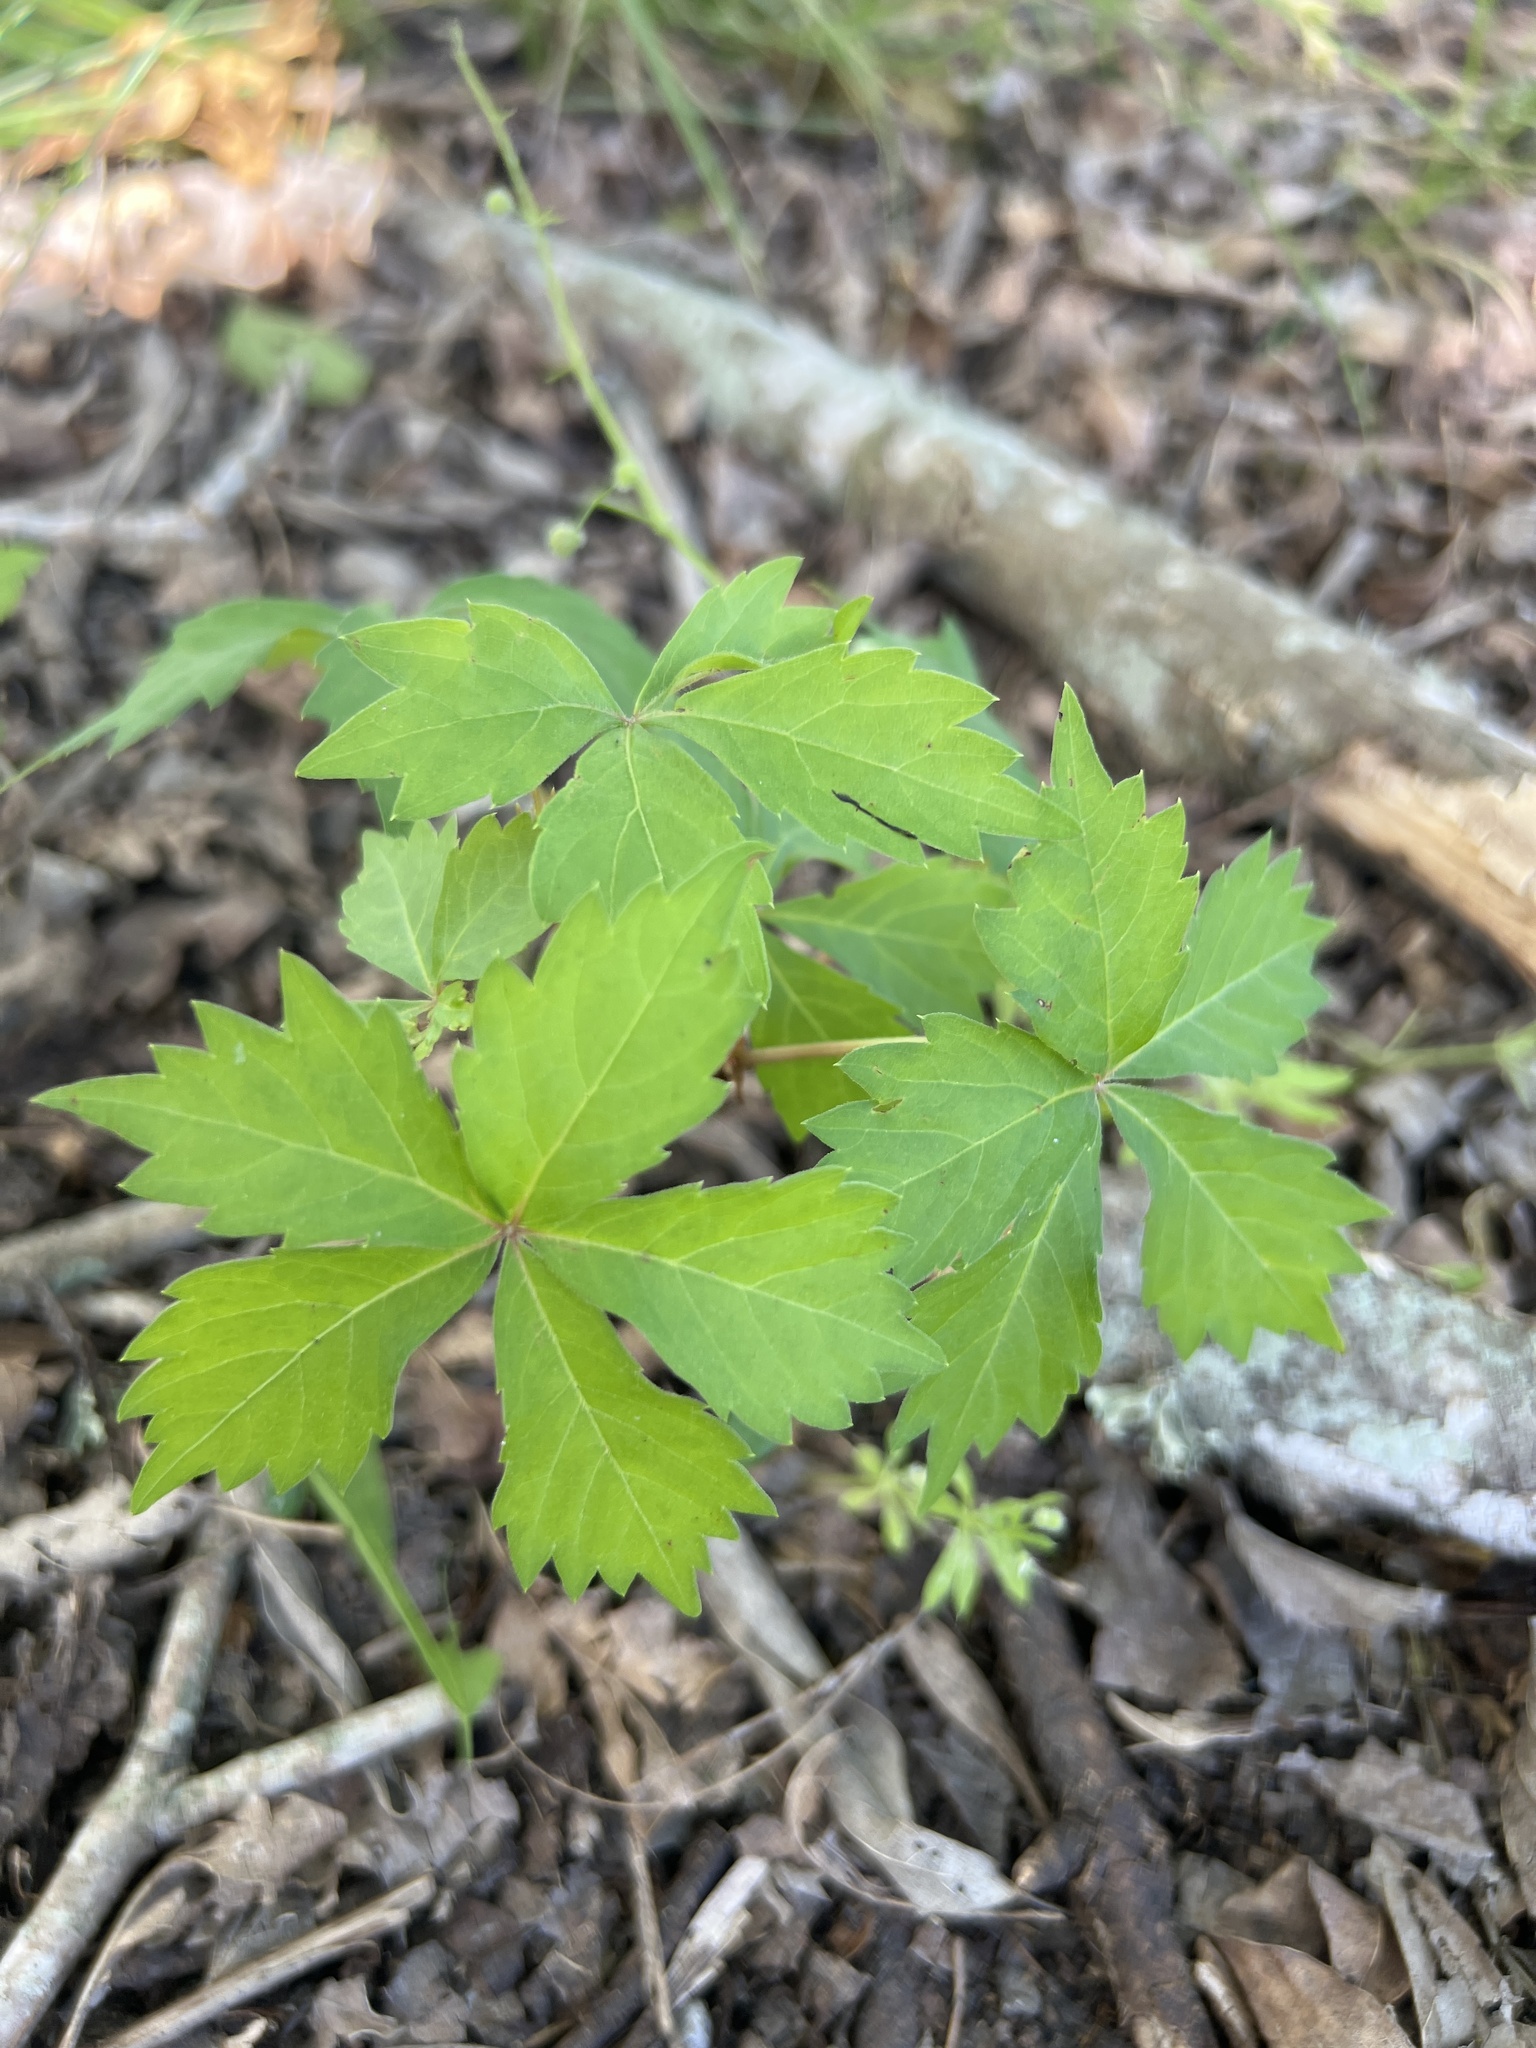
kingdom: Plantae
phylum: Tracheophyta
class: Magnoliopsida
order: Vitales
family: Vitaceae
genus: Parthenocissus
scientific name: Parthenocissus quinquefolia
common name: Virginia-creeper
